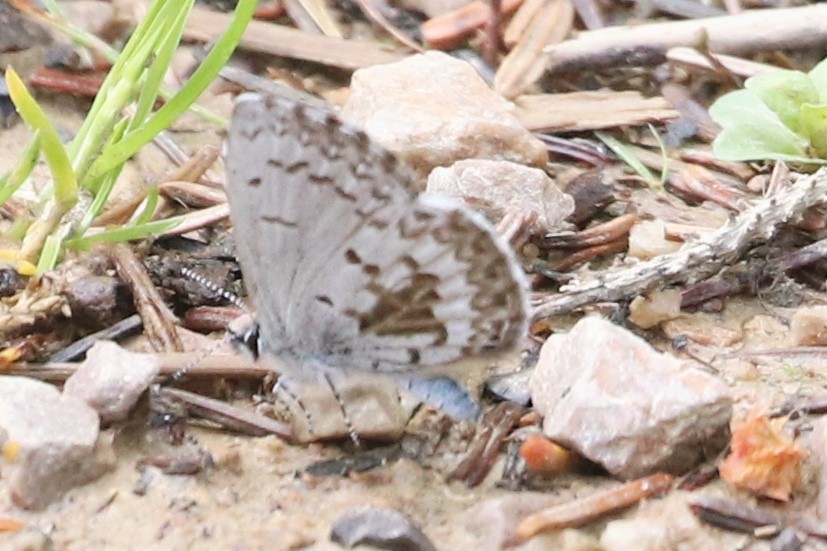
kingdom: Animalia
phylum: Arthropoda
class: Insecta
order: Lepidoptera
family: Lycaenidae
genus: Celastrina
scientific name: Celastrina lucia
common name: Lucia azure
